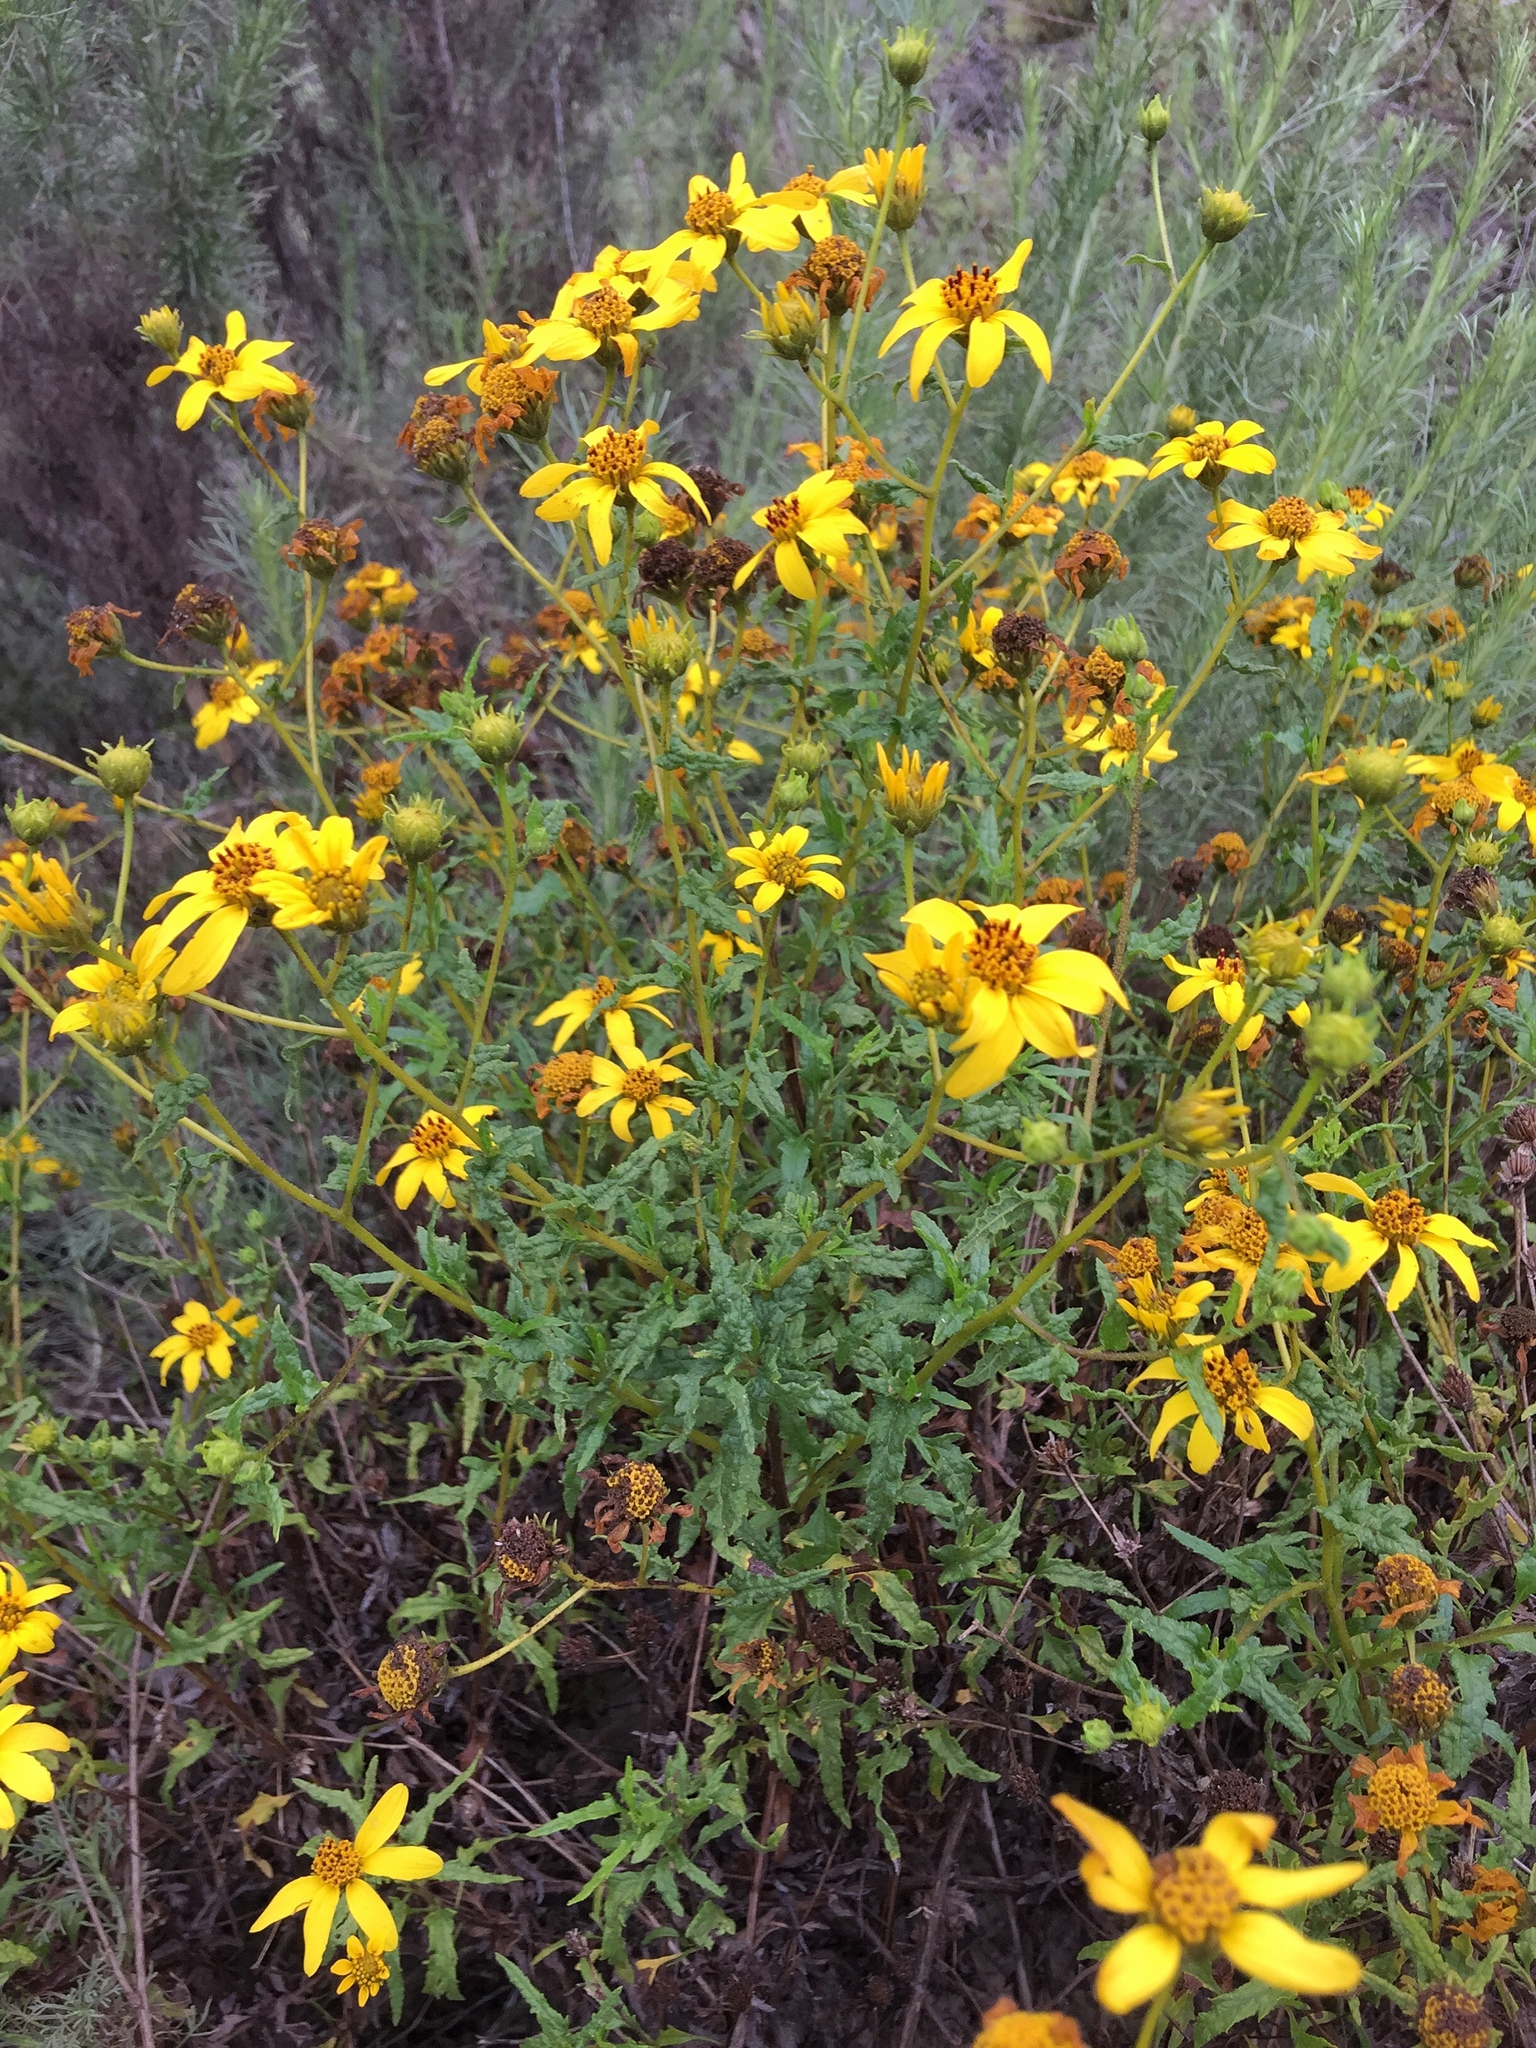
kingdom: Plantae
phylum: Tracheophyta
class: Magnoliopsida
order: Asterales
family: Asteraceae
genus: Bahiopsis
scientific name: Bahiopsis laciniata
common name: San diego county viguiera
